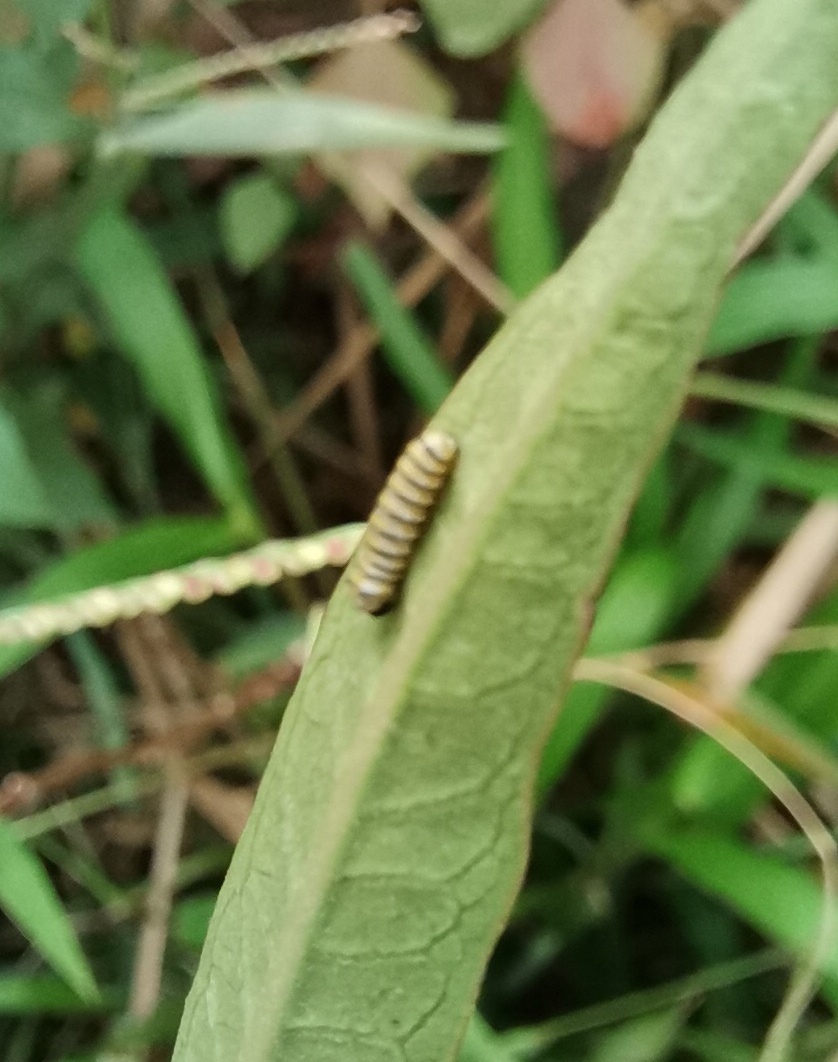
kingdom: Plantae
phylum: Tracheophyta
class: Magnoliopsida
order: Gentianales
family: Apocynaceae
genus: Asclepias
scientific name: Asclepias curassavica
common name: Bloodflower
